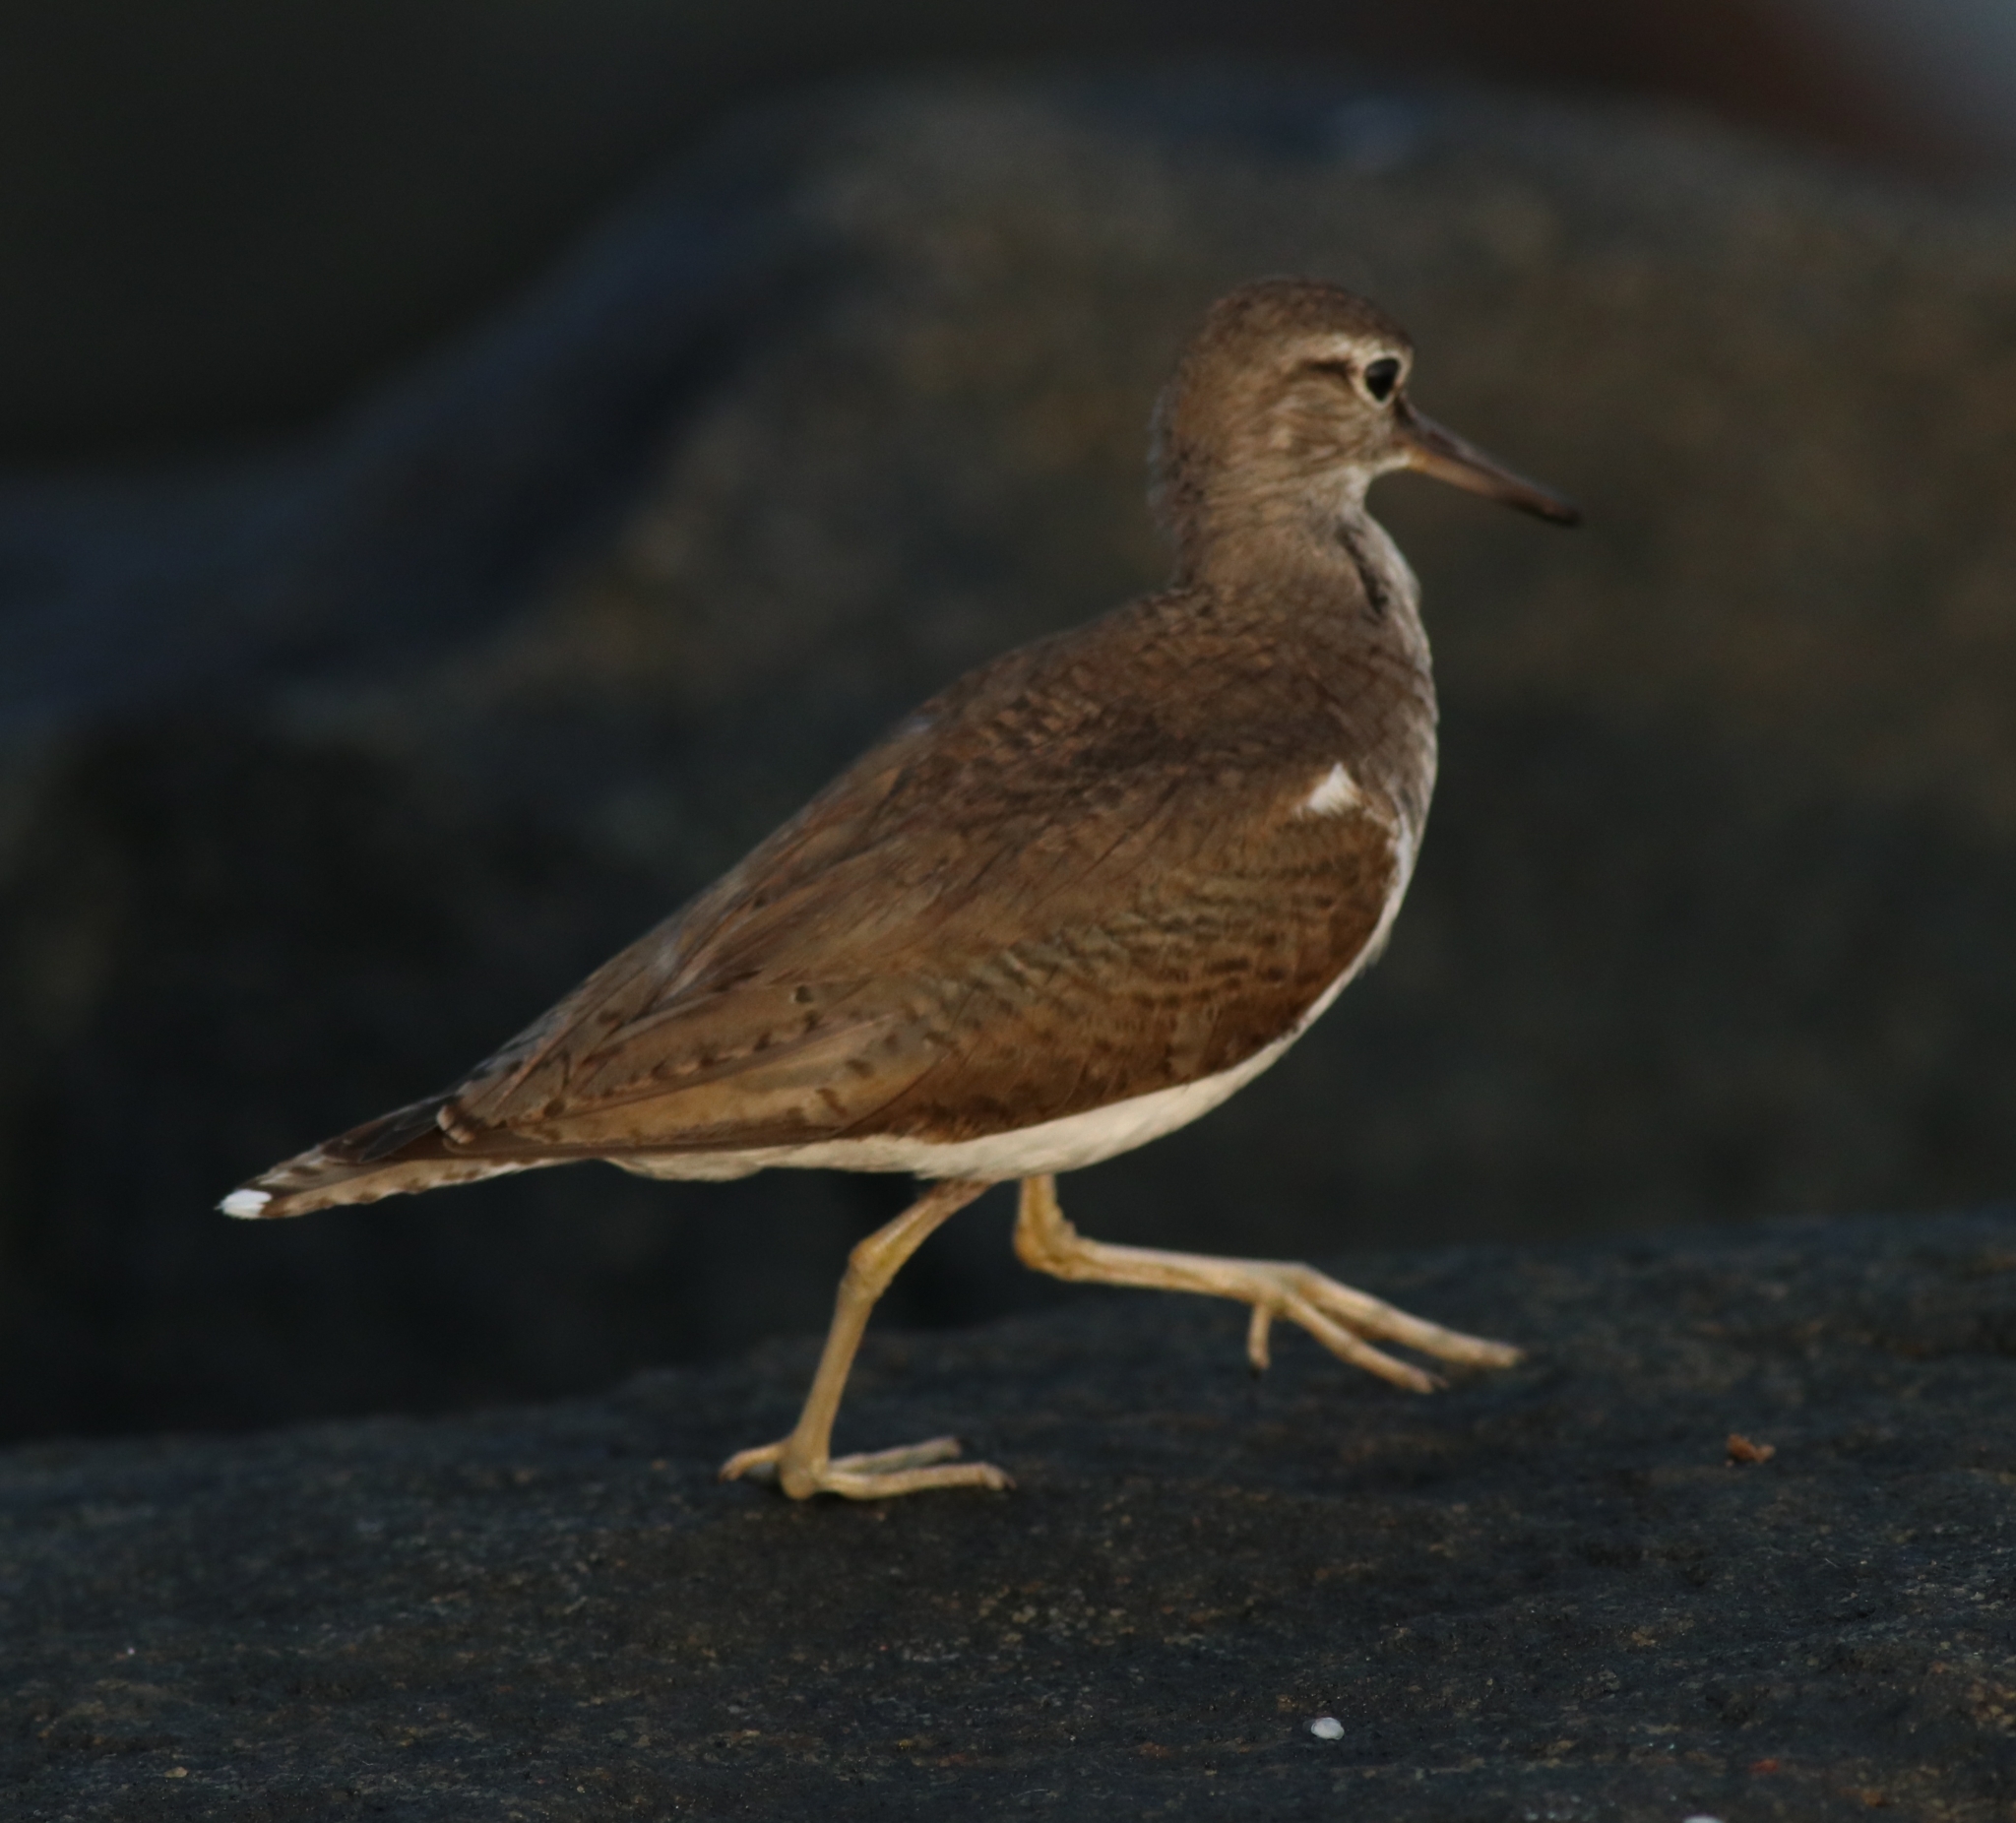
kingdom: Animalia
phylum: Chordata
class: Aves
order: Charadriiformes
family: Scolopacidae
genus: Actitis
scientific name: Actitis hypoleucos
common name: Common sandpiper
